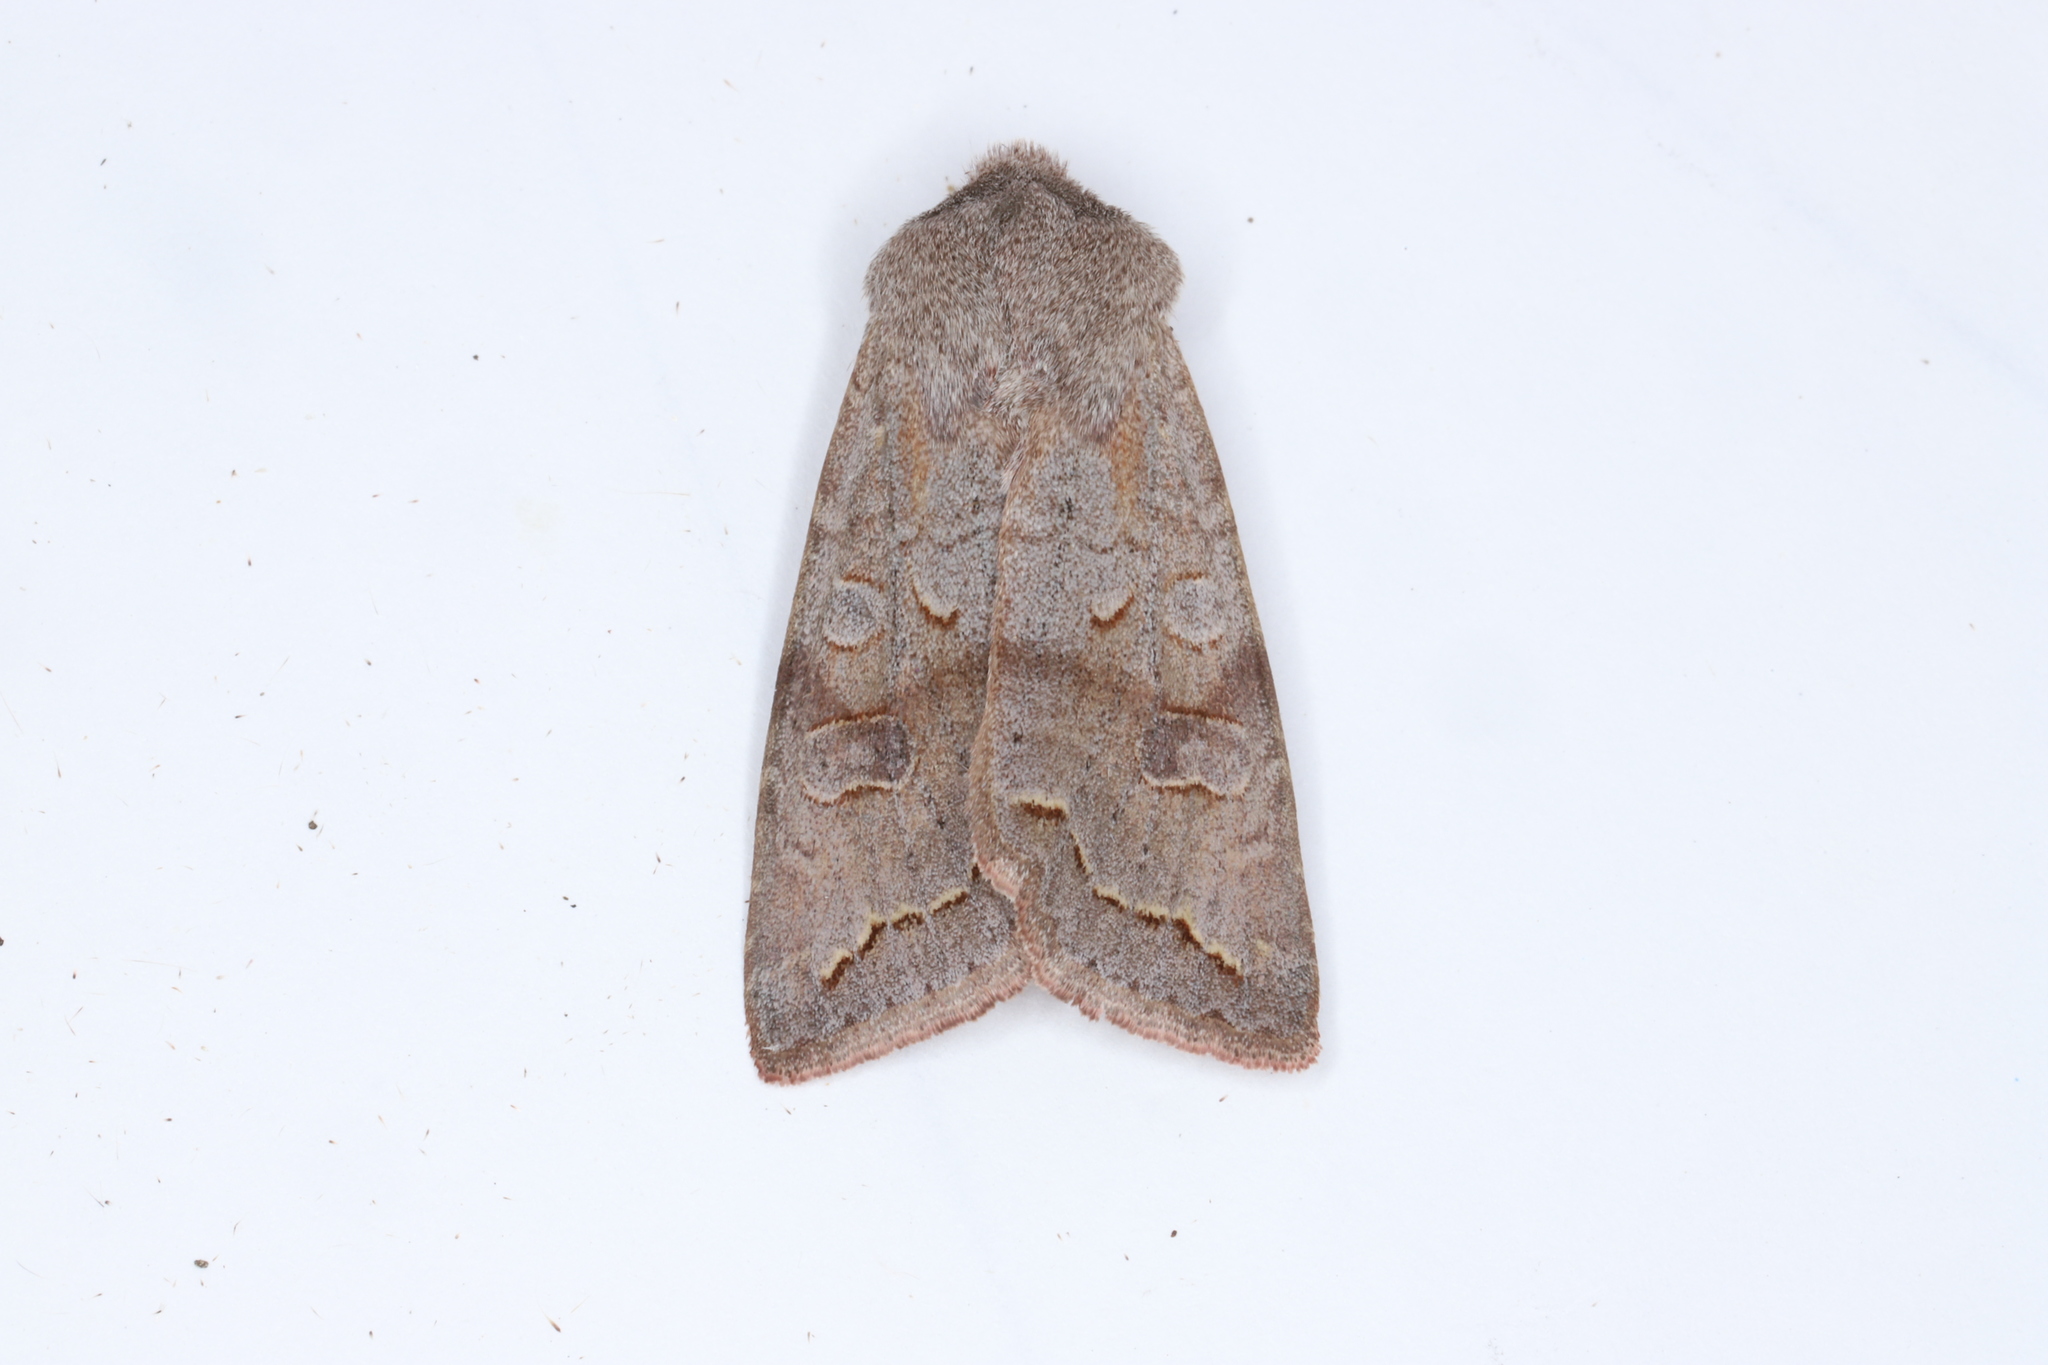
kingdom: Animalia
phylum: Arthropoda
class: Insecta
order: Lepidoptera
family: Noctuidae
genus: Orthosia
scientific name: Orthosia revicta
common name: Rusty whitesided caterpillar
